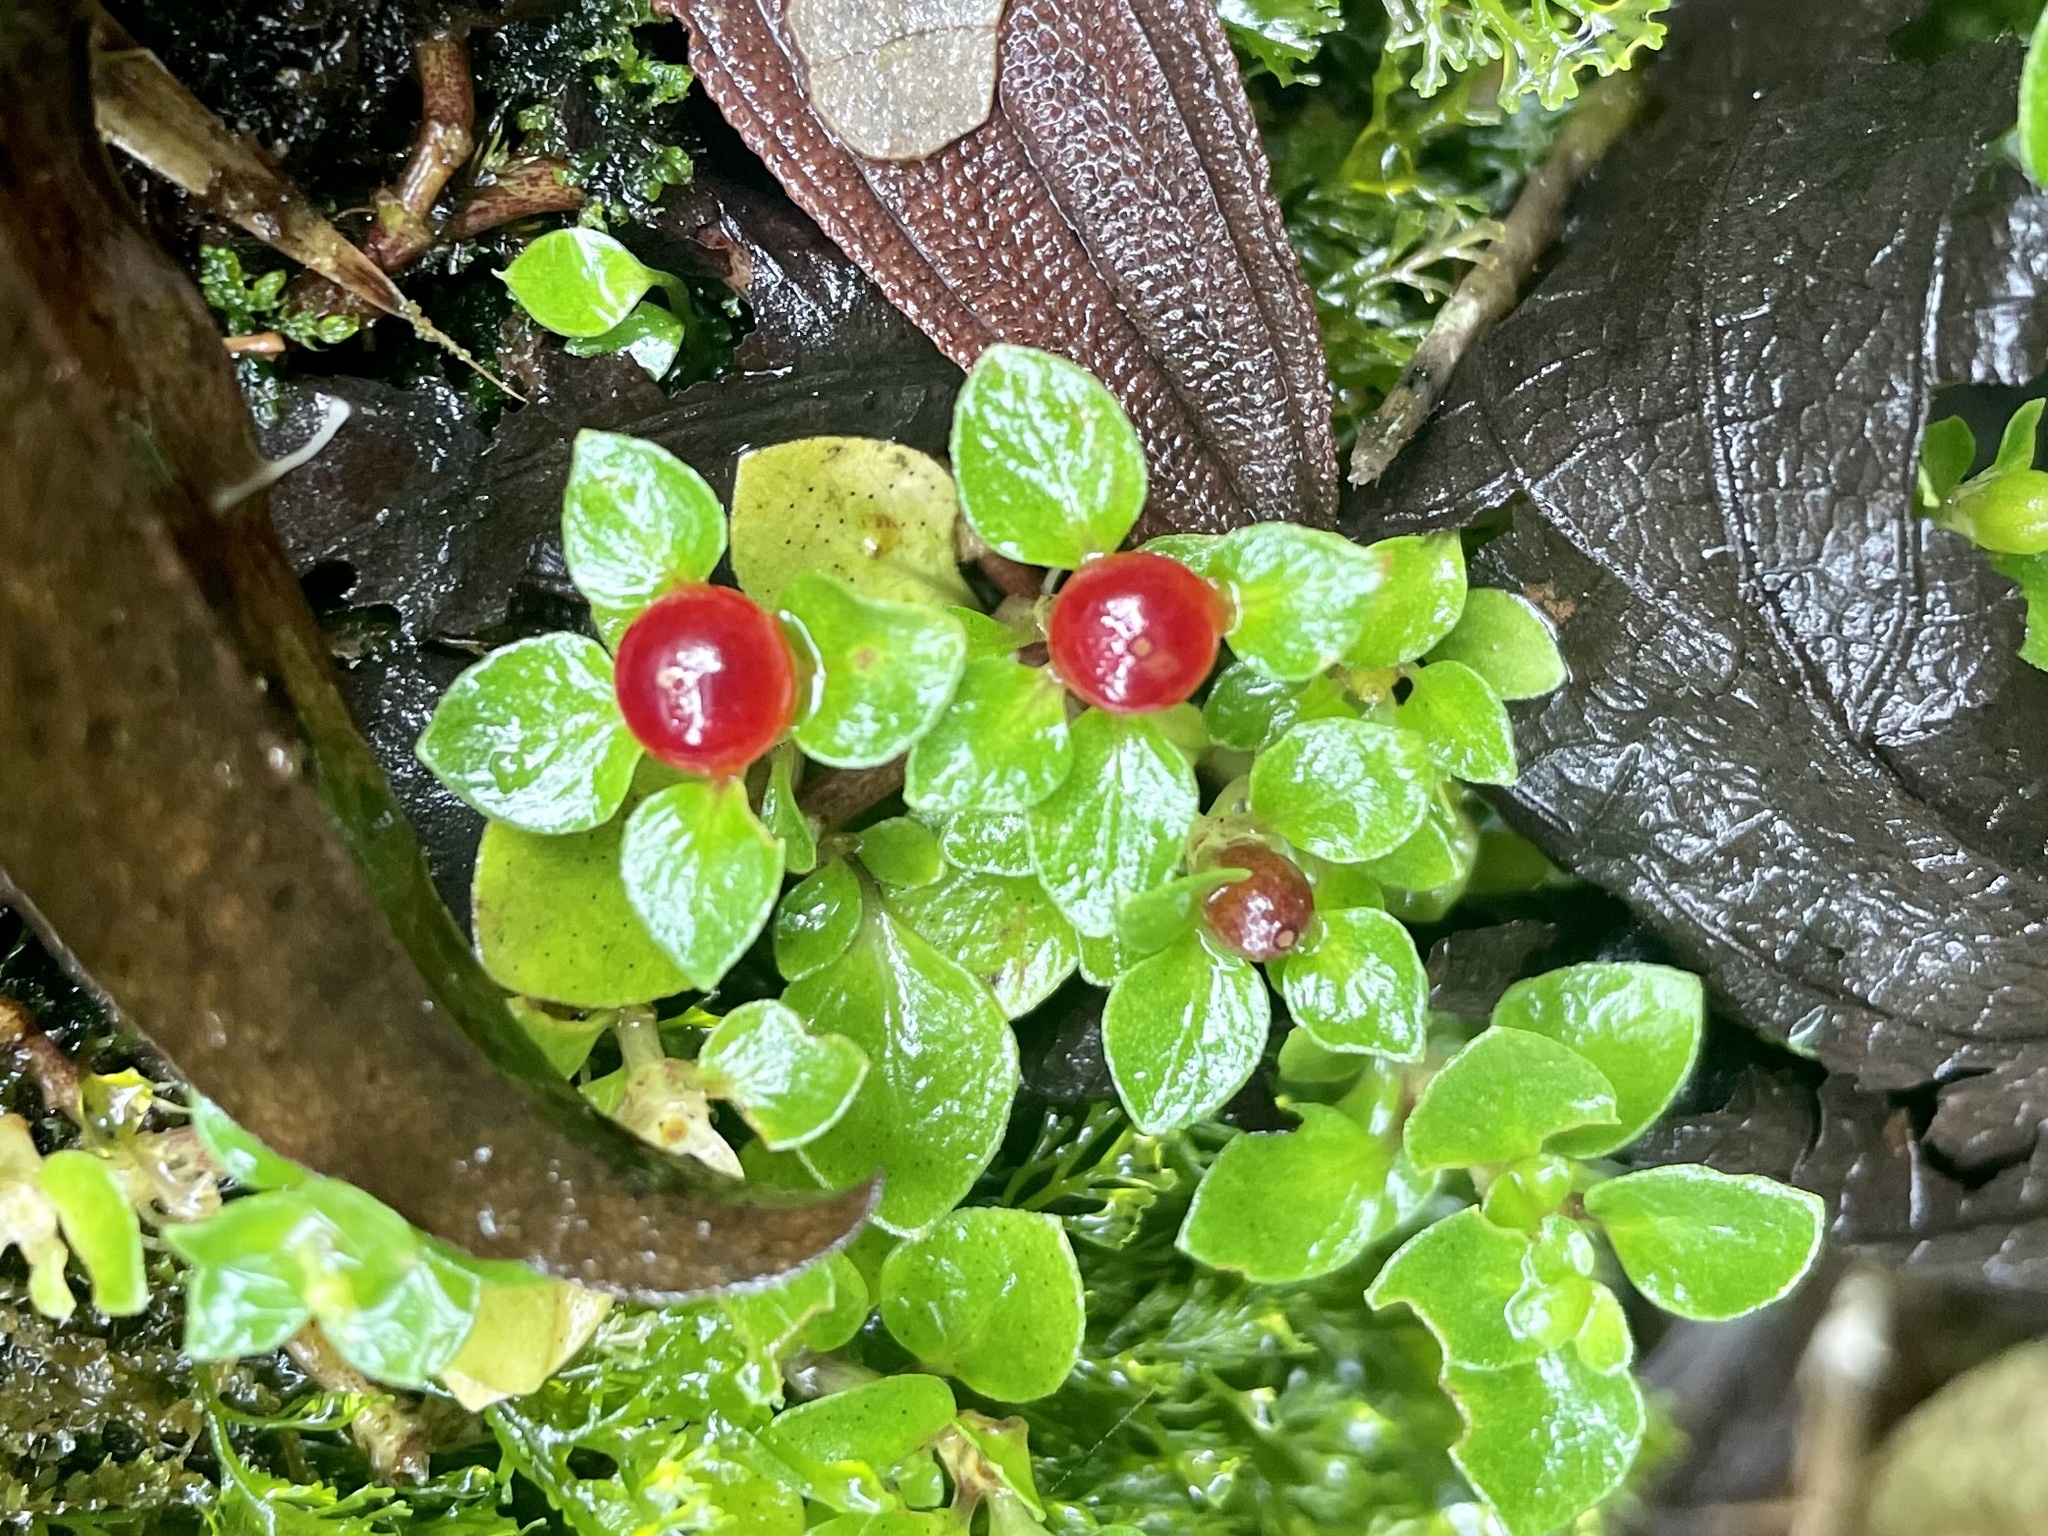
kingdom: Plantae
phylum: Tracheophyta
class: Magnoliopsida
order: Gentianales
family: Rubiaceae
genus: Nertera
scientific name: Nertera granadensis
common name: Beadplant
